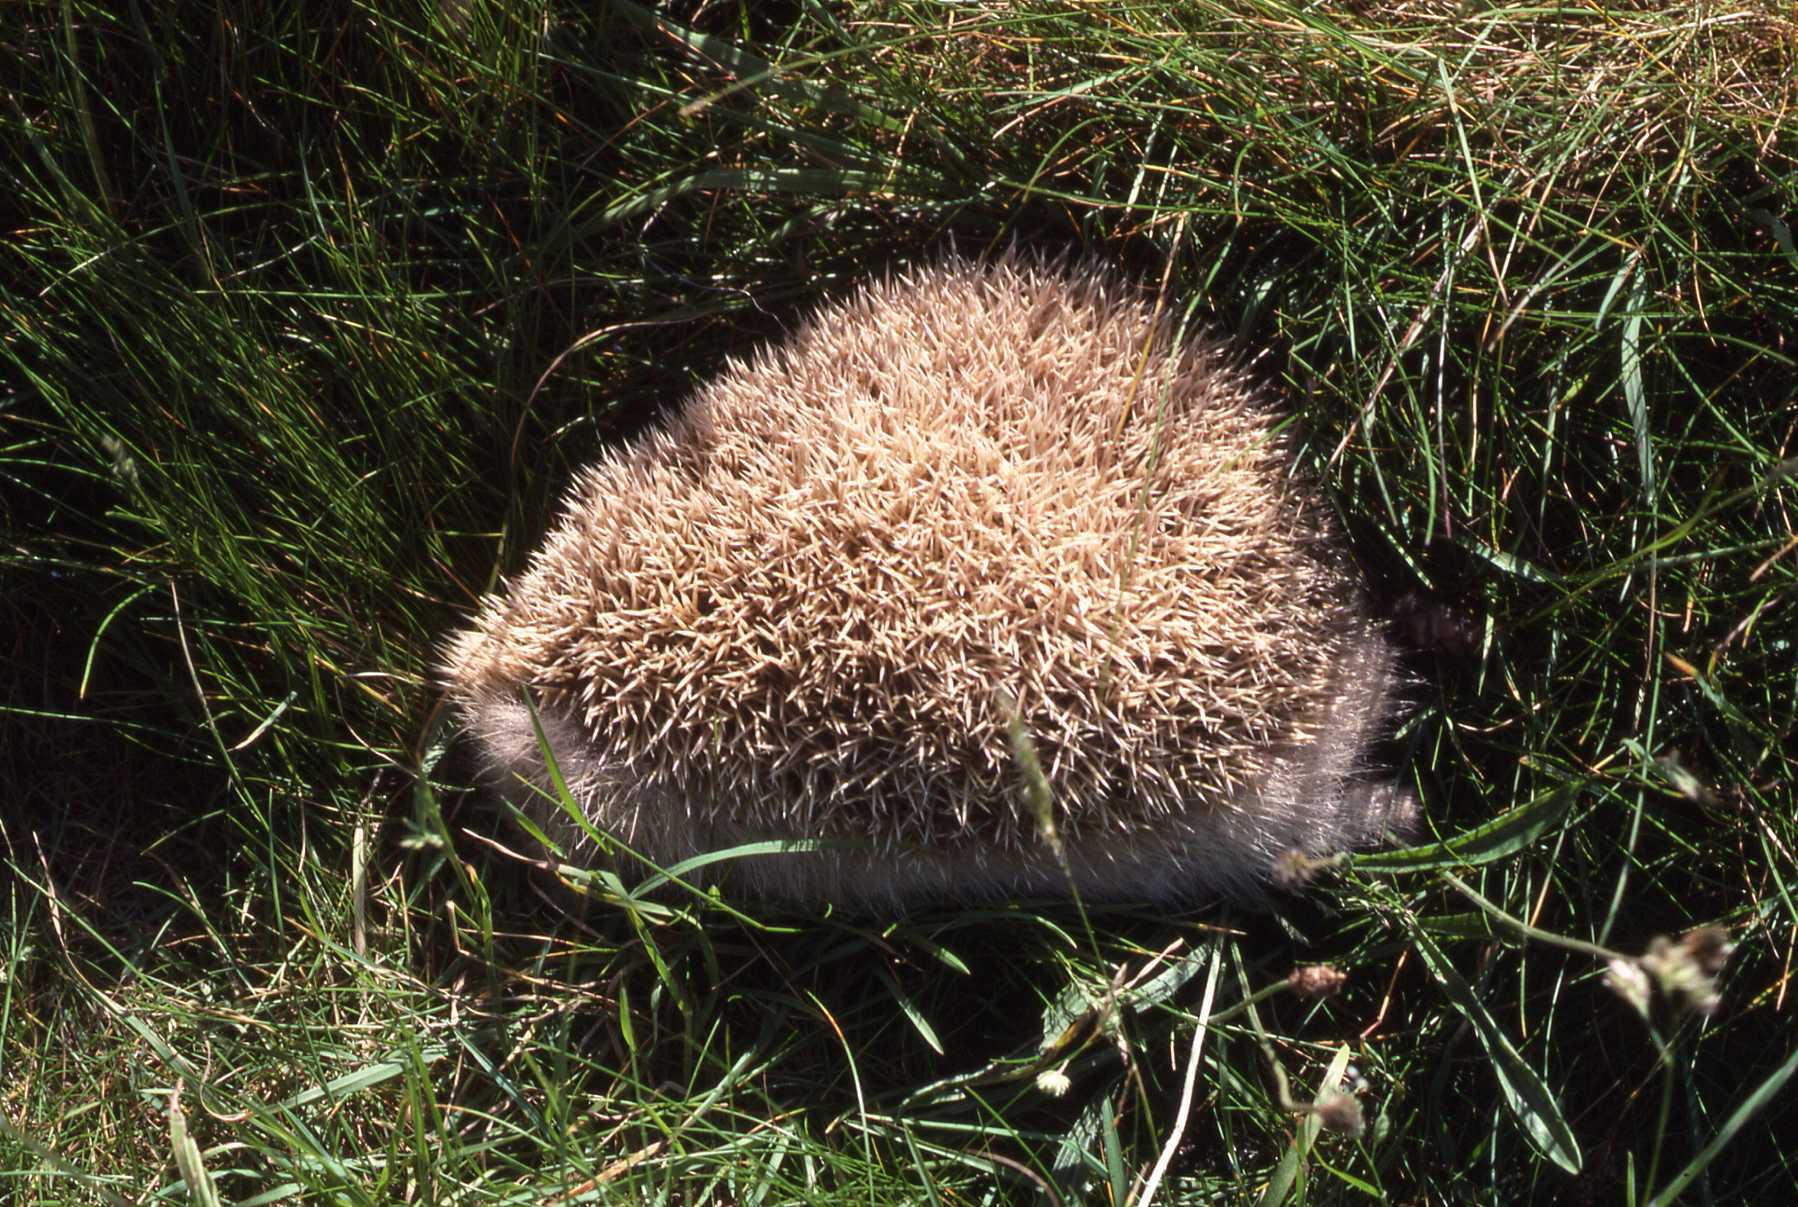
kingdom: Animalia
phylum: Chordata
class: Mammalia
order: Erinaceomorpha
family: Erinaceidae
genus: Erinaceus
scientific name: Erinaceus europaeus
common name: West european hedgehog
